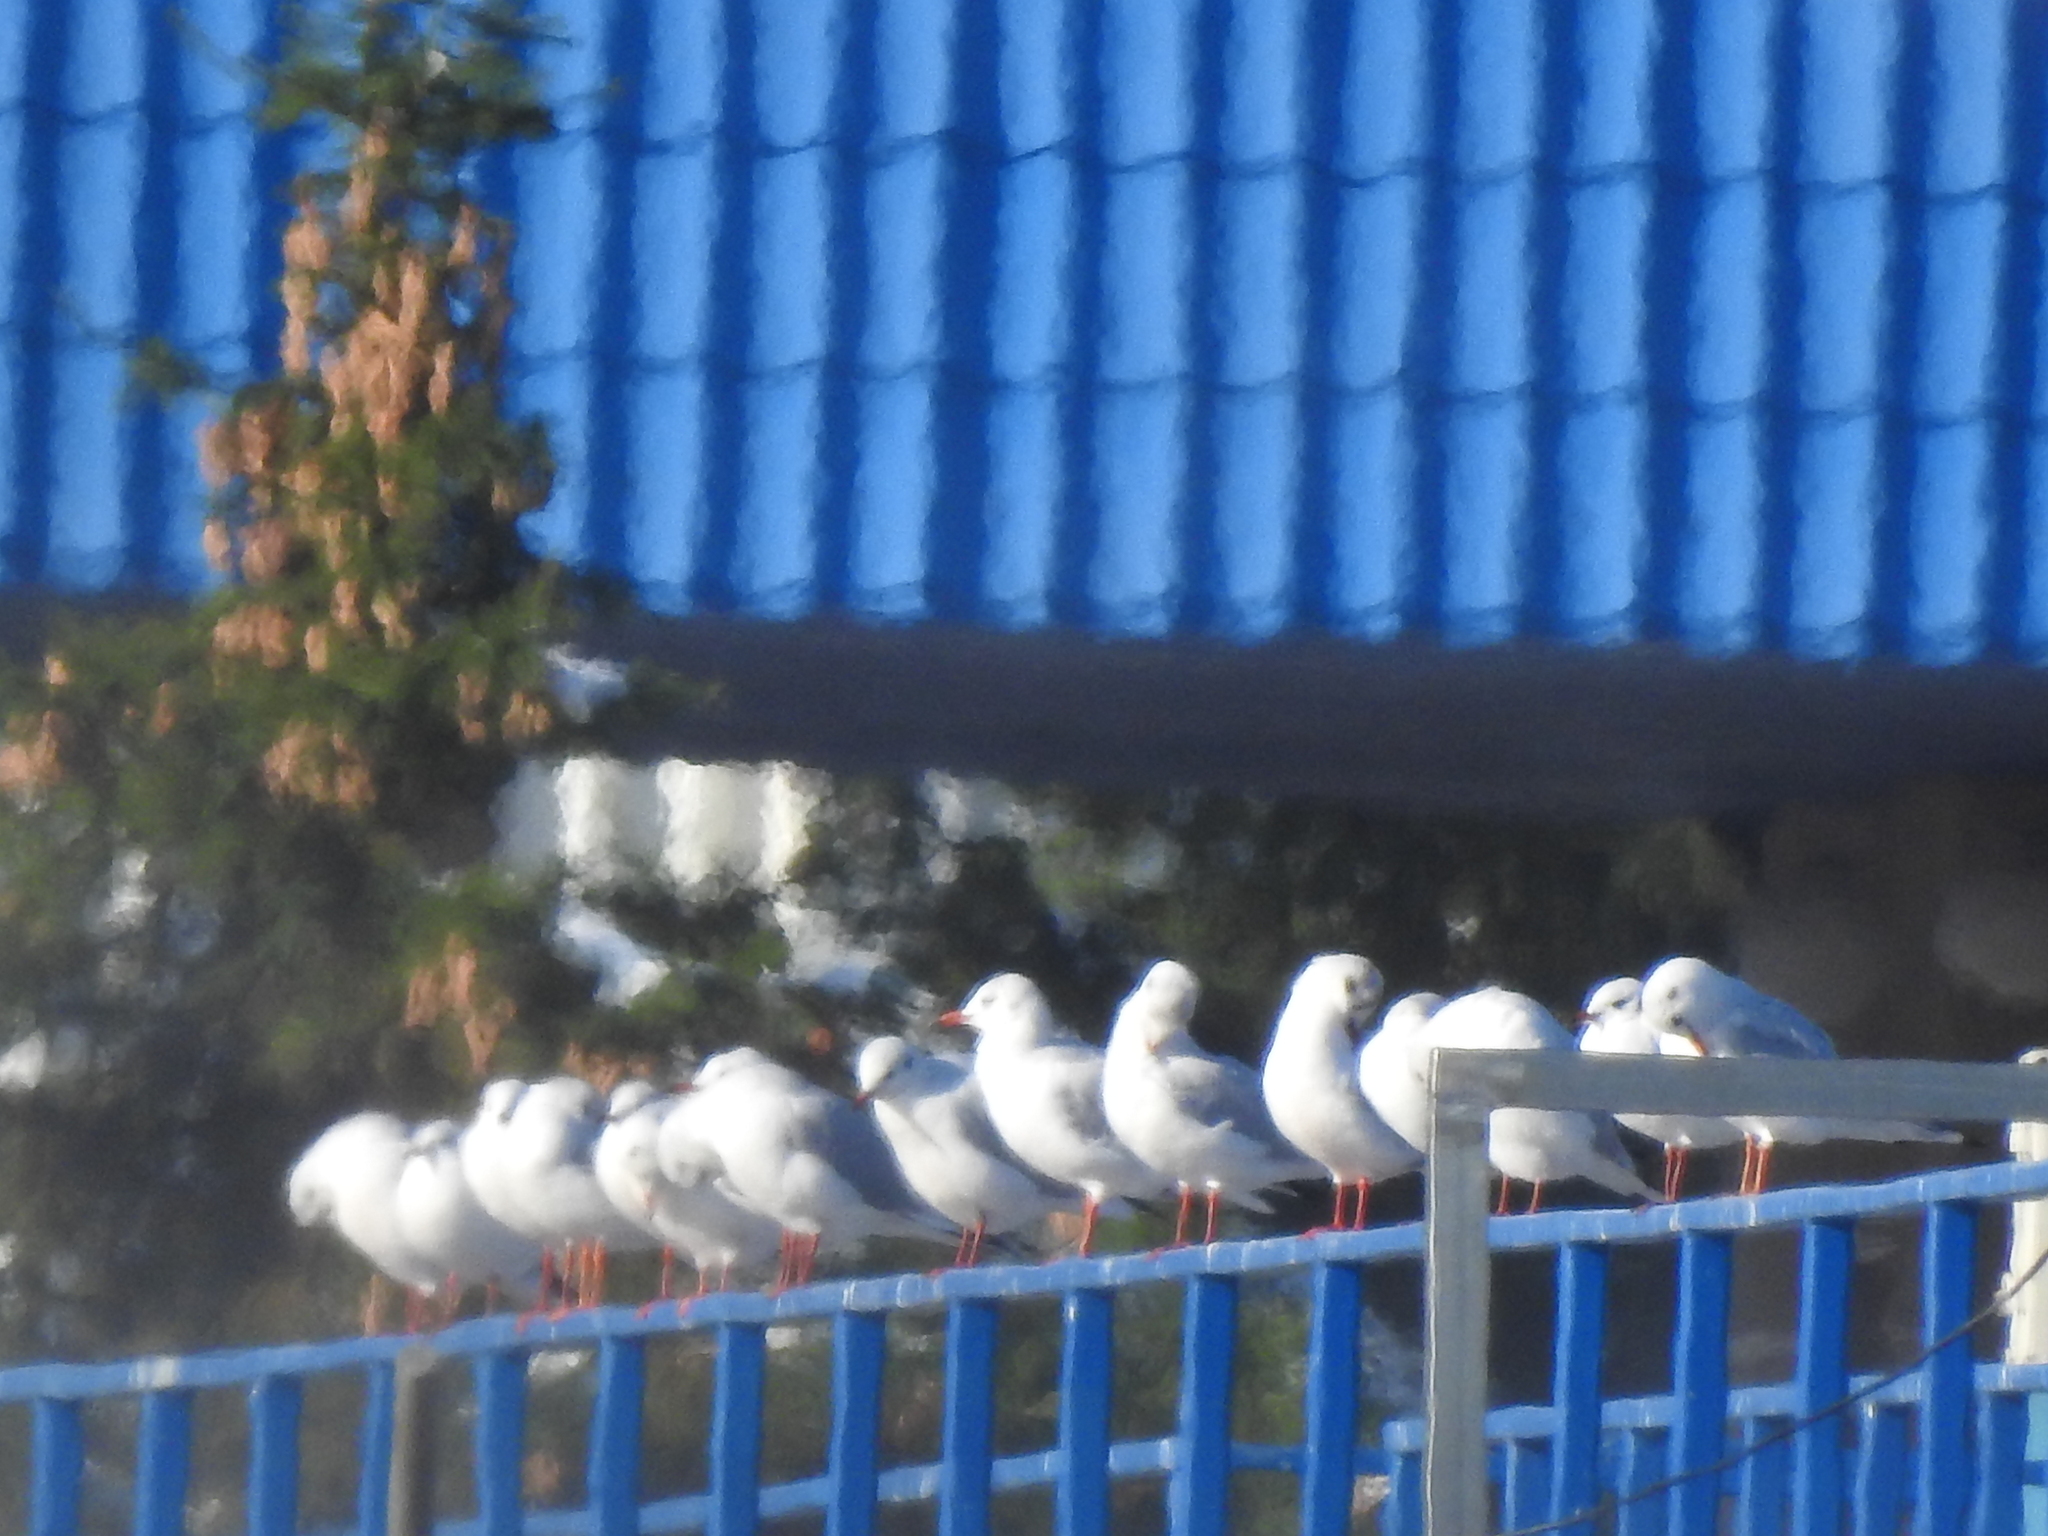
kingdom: Animalia
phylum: Chordata
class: Aves
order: Charadriiformes
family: Laridae
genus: Chroicocephalus
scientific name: Chroicocephalus ridibundus
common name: Black-headed gull
